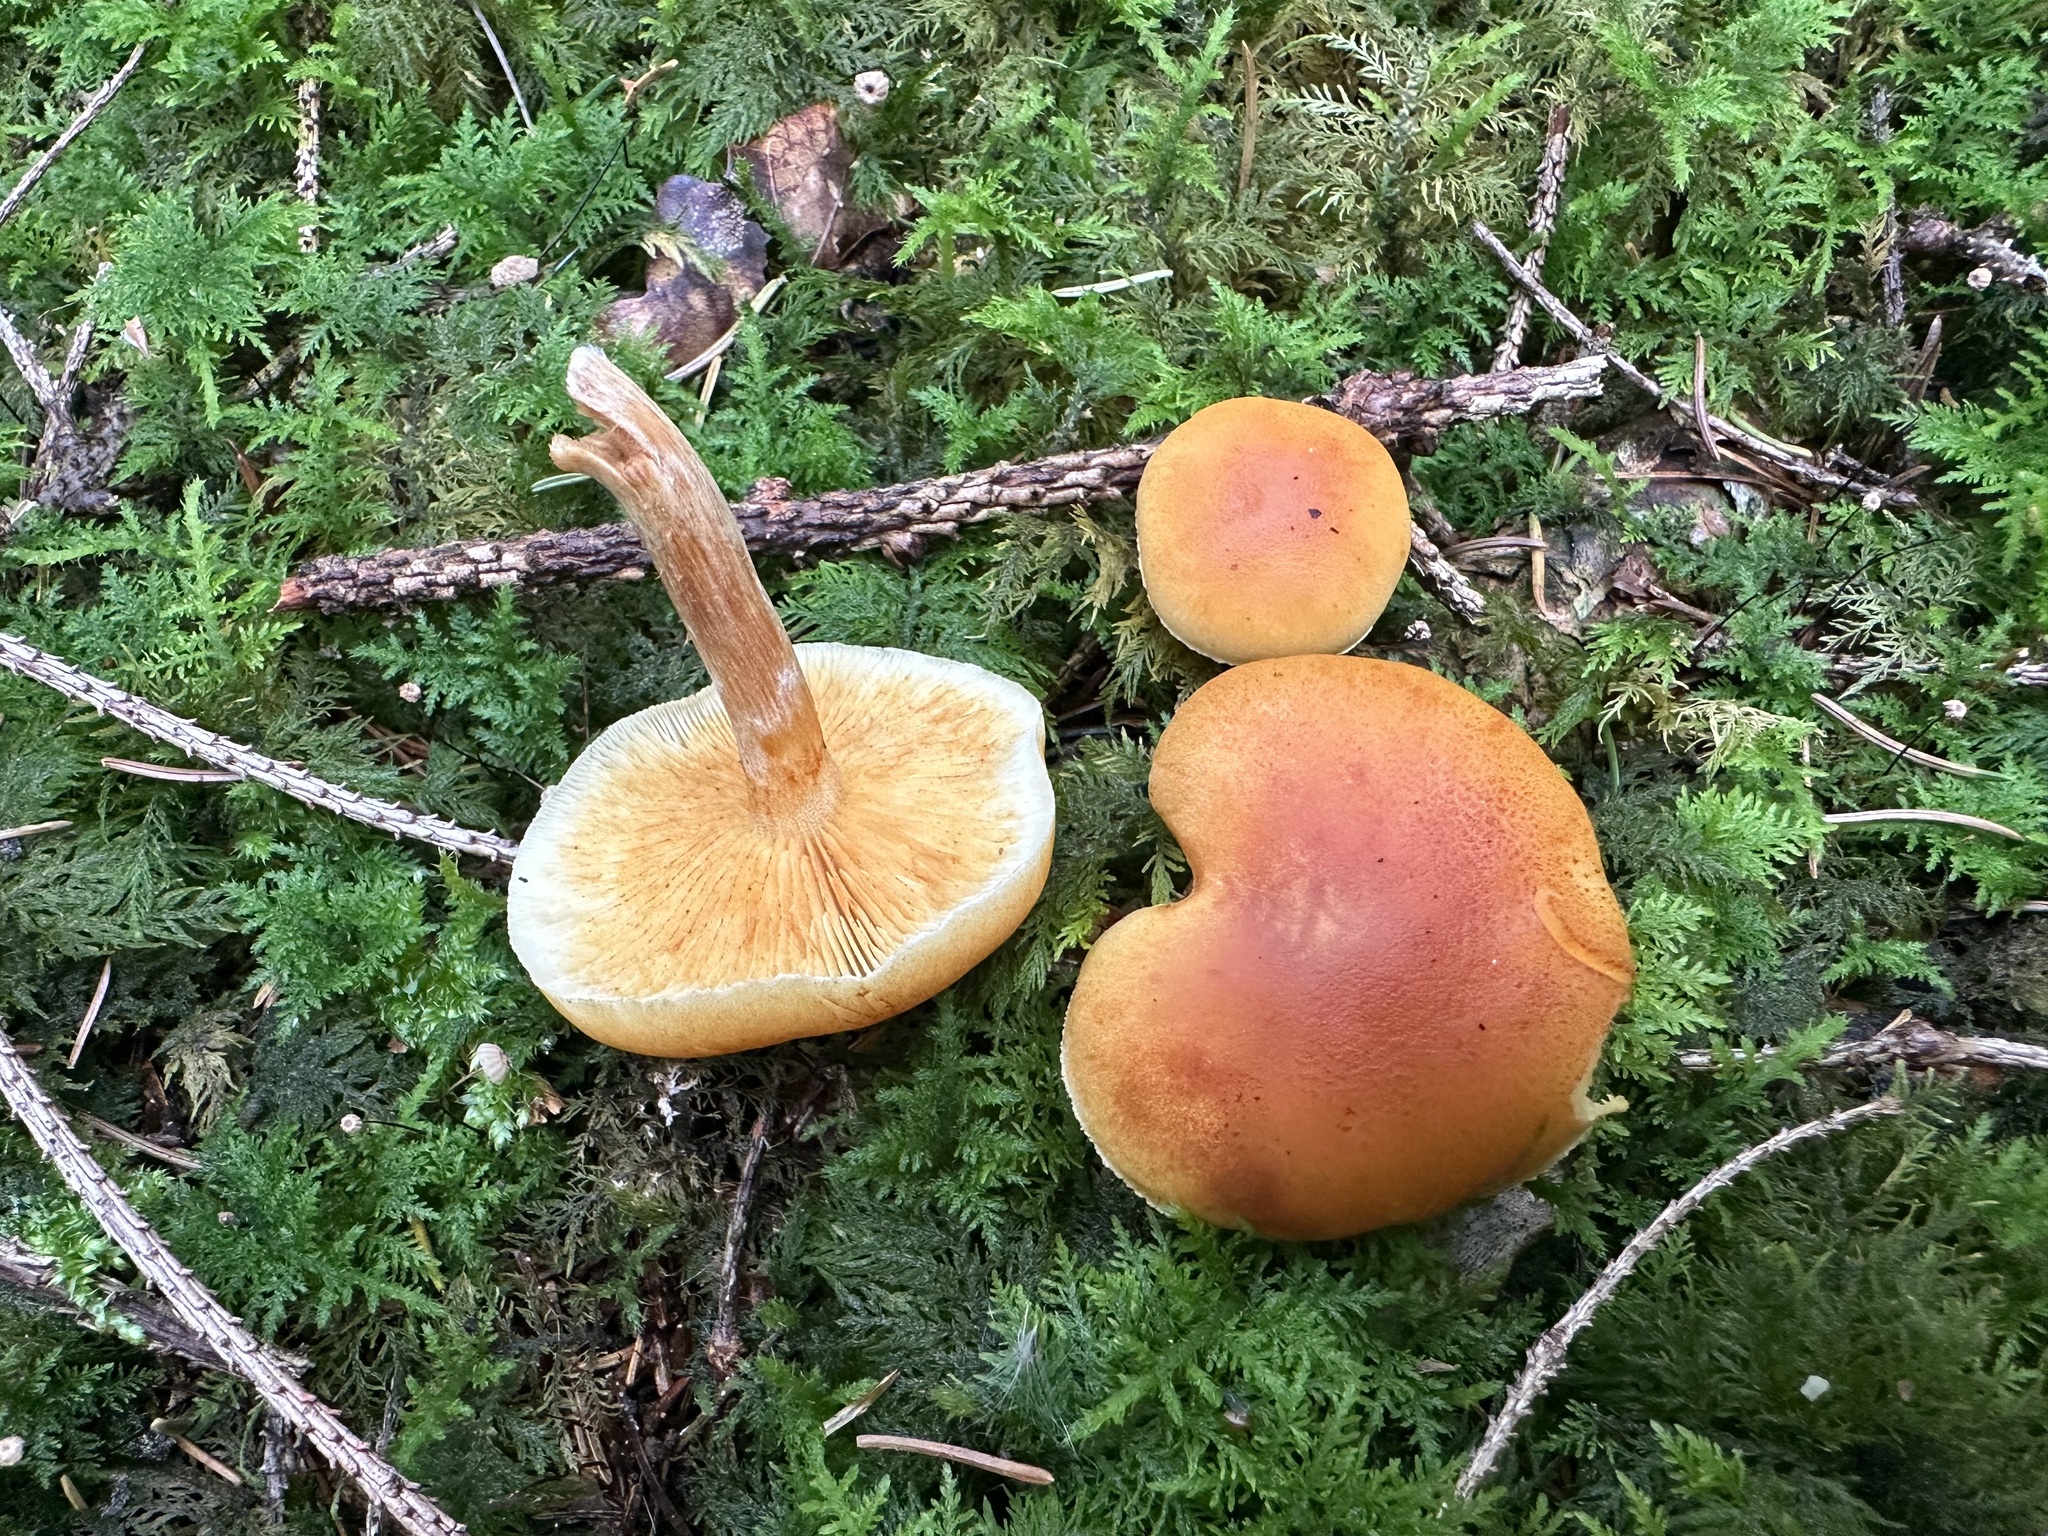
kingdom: Fungi
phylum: Basidiomycota
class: Agaricomycetes
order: Agaricales
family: Hymenogastraceae
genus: Gymnopilus
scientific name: Gymnopilus penetrans
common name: Common rustgill
